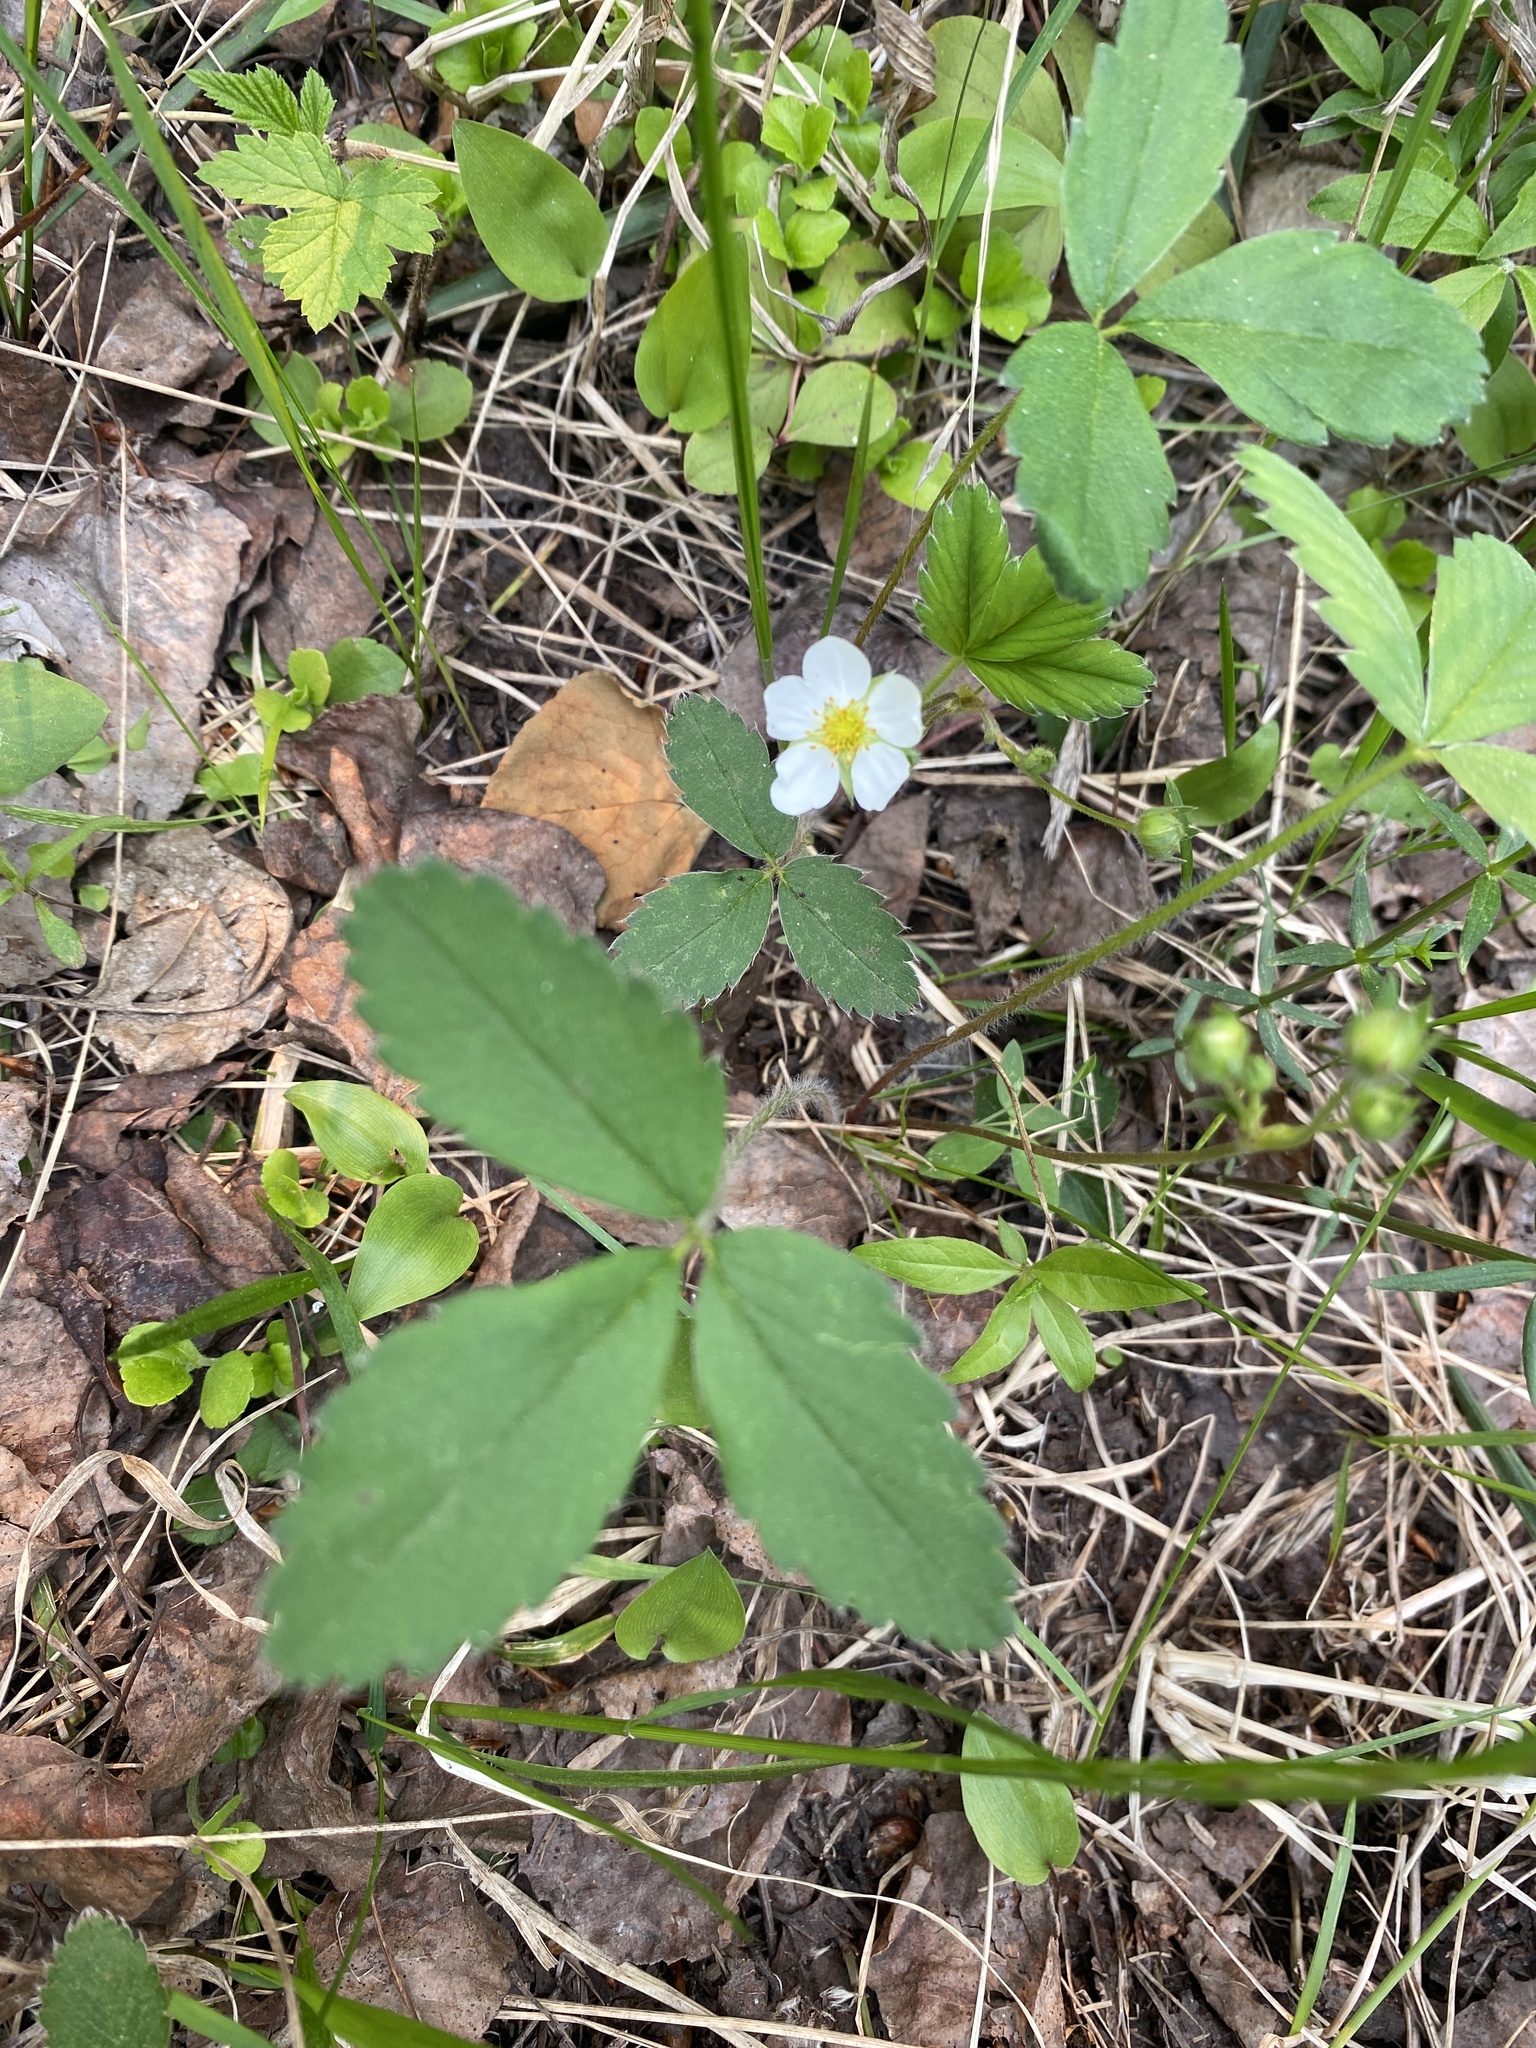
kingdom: Plantae
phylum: Tracheophyta
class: Magnoliopsida
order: Rosales
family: Rosaceae
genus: Fragaria
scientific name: Fragaria virginiana
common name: Thickleaved wild strawberry
